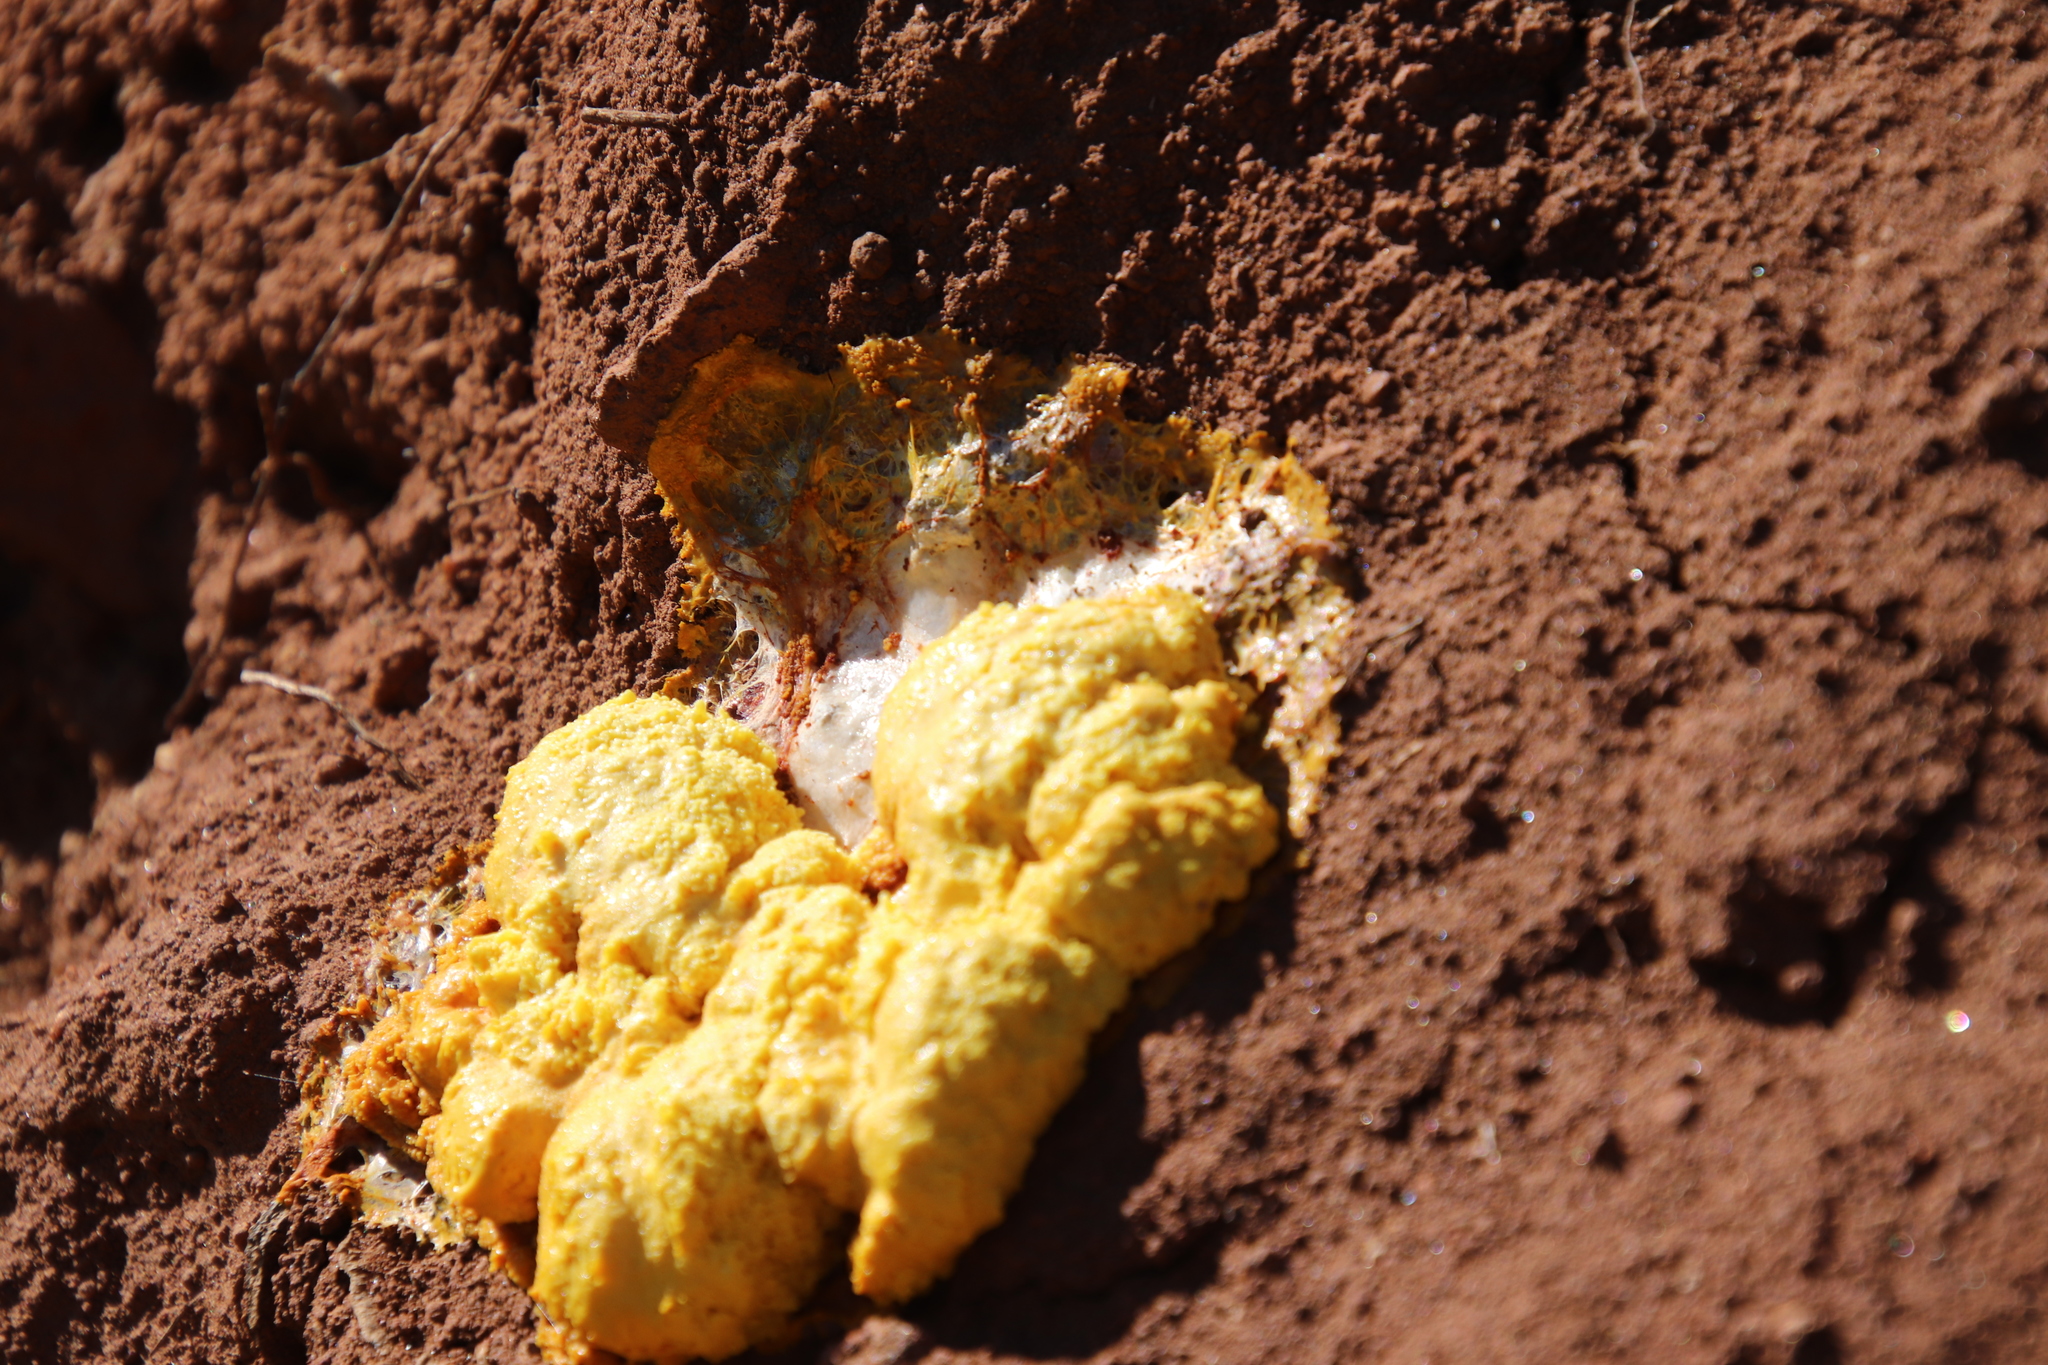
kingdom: Protozoa
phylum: Mycetozoa
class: Myxomycetes
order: Physarales
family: Physaraceae
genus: Fuligo
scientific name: Fuligo septica
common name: Dog vomit slime mold
